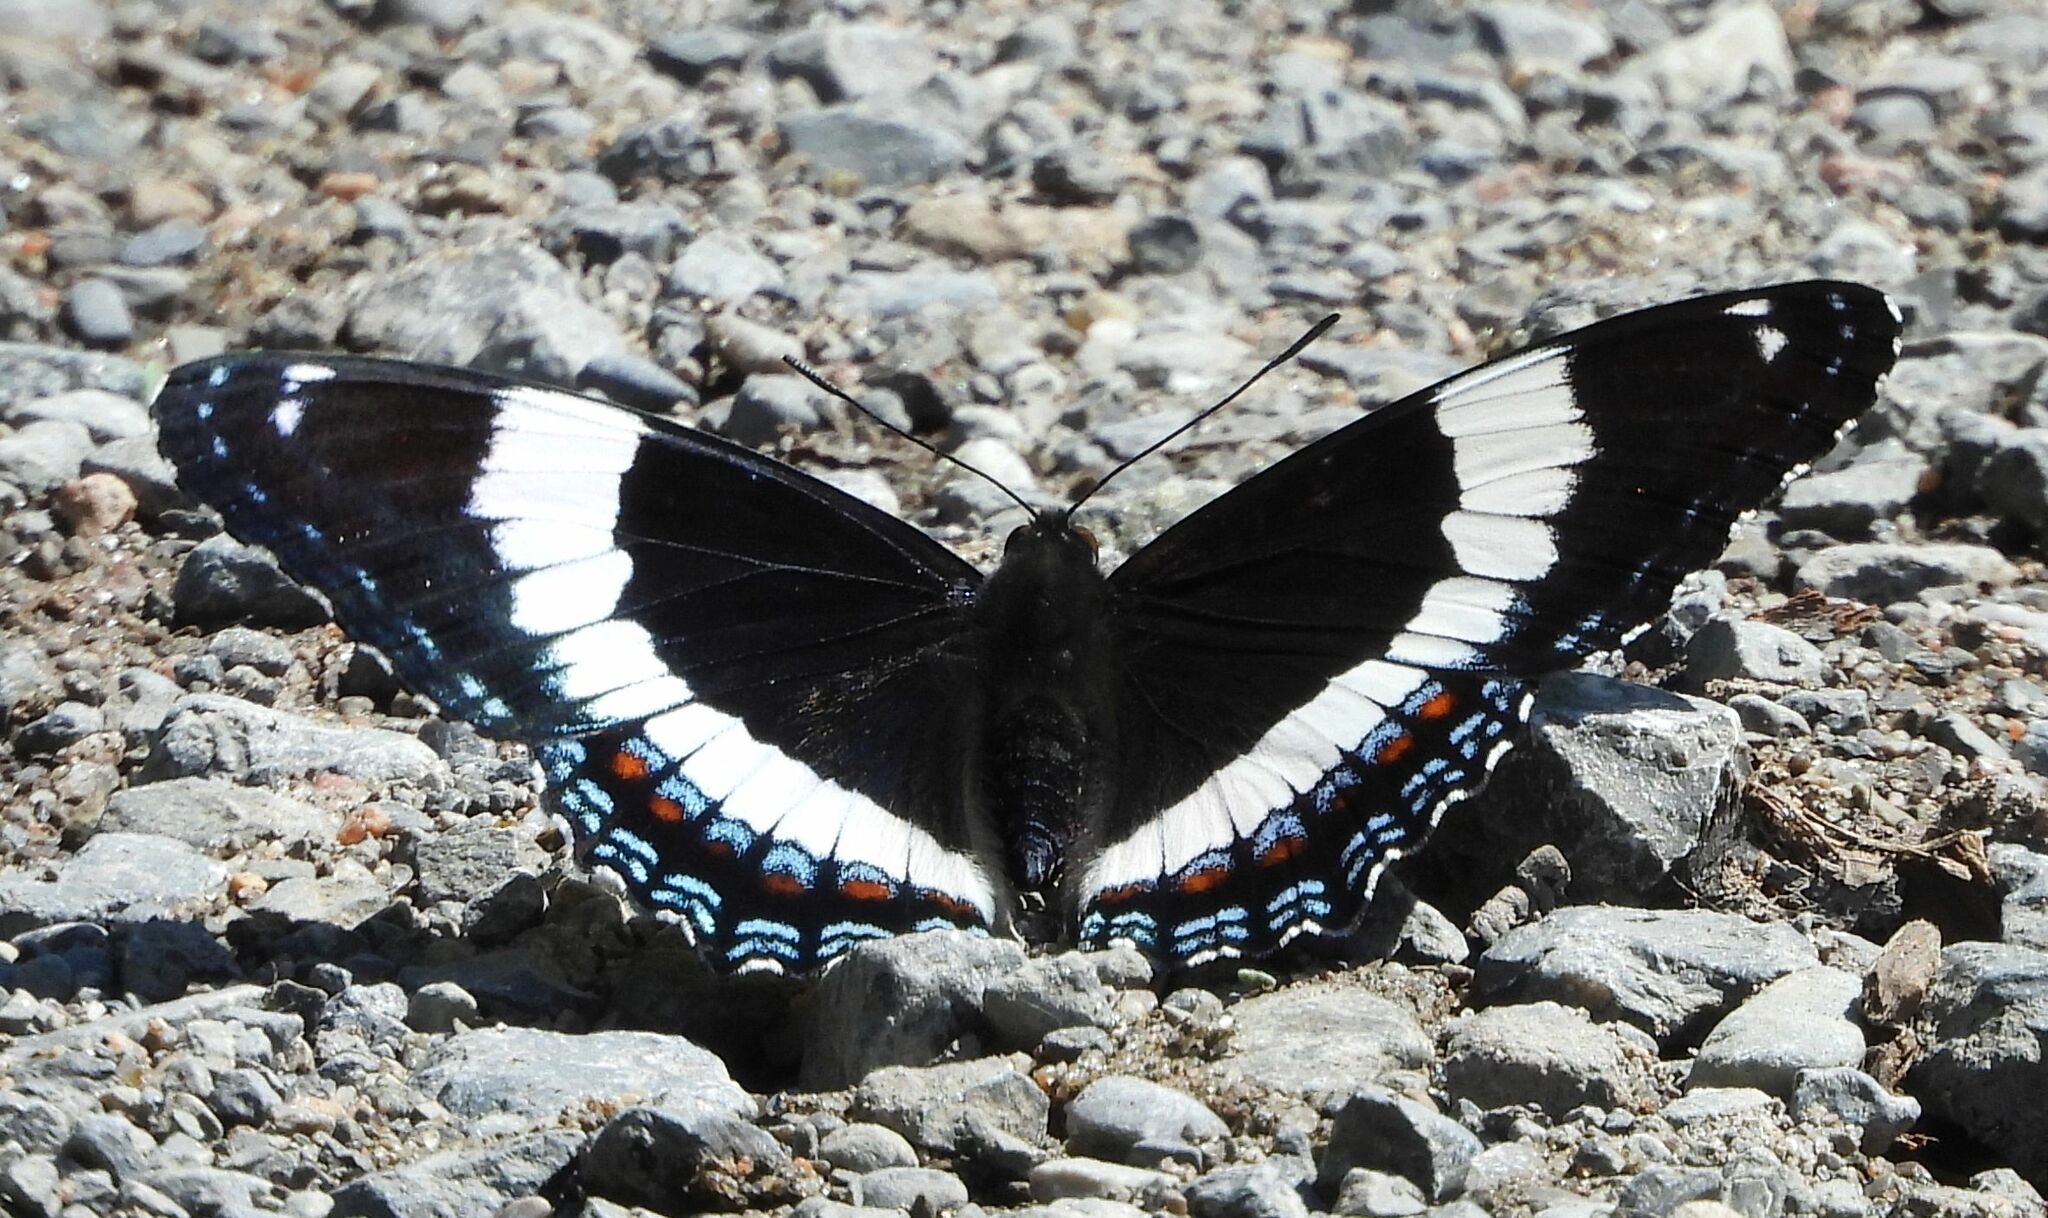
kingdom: Animalia
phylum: Arthropoda
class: Insecta
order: Lepidoptera
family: Nymphalidae
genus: Limenitis
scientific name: Limenitis arthemis
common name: Red-spotted admiral
